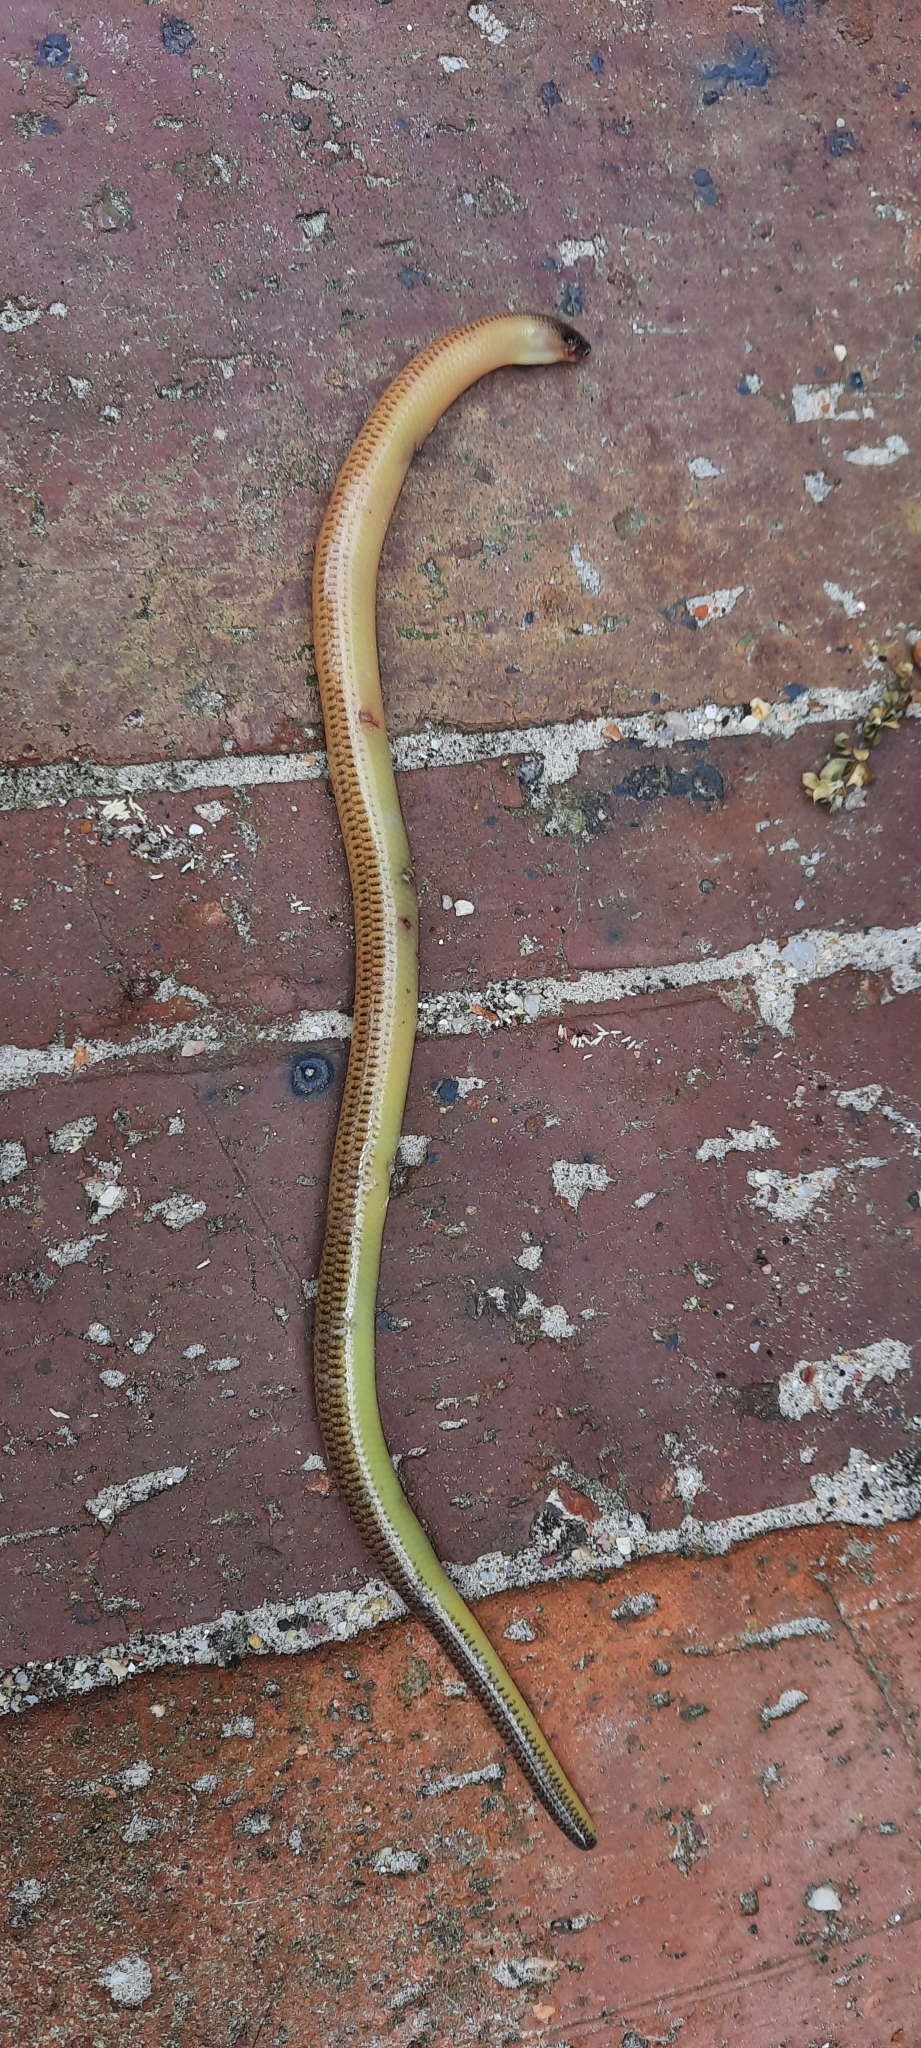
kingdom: Animalia
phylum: Chordata
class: Squamata
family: Scincidae
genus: Acontias
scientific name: Acontias meleagris
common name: Cape legless skink
